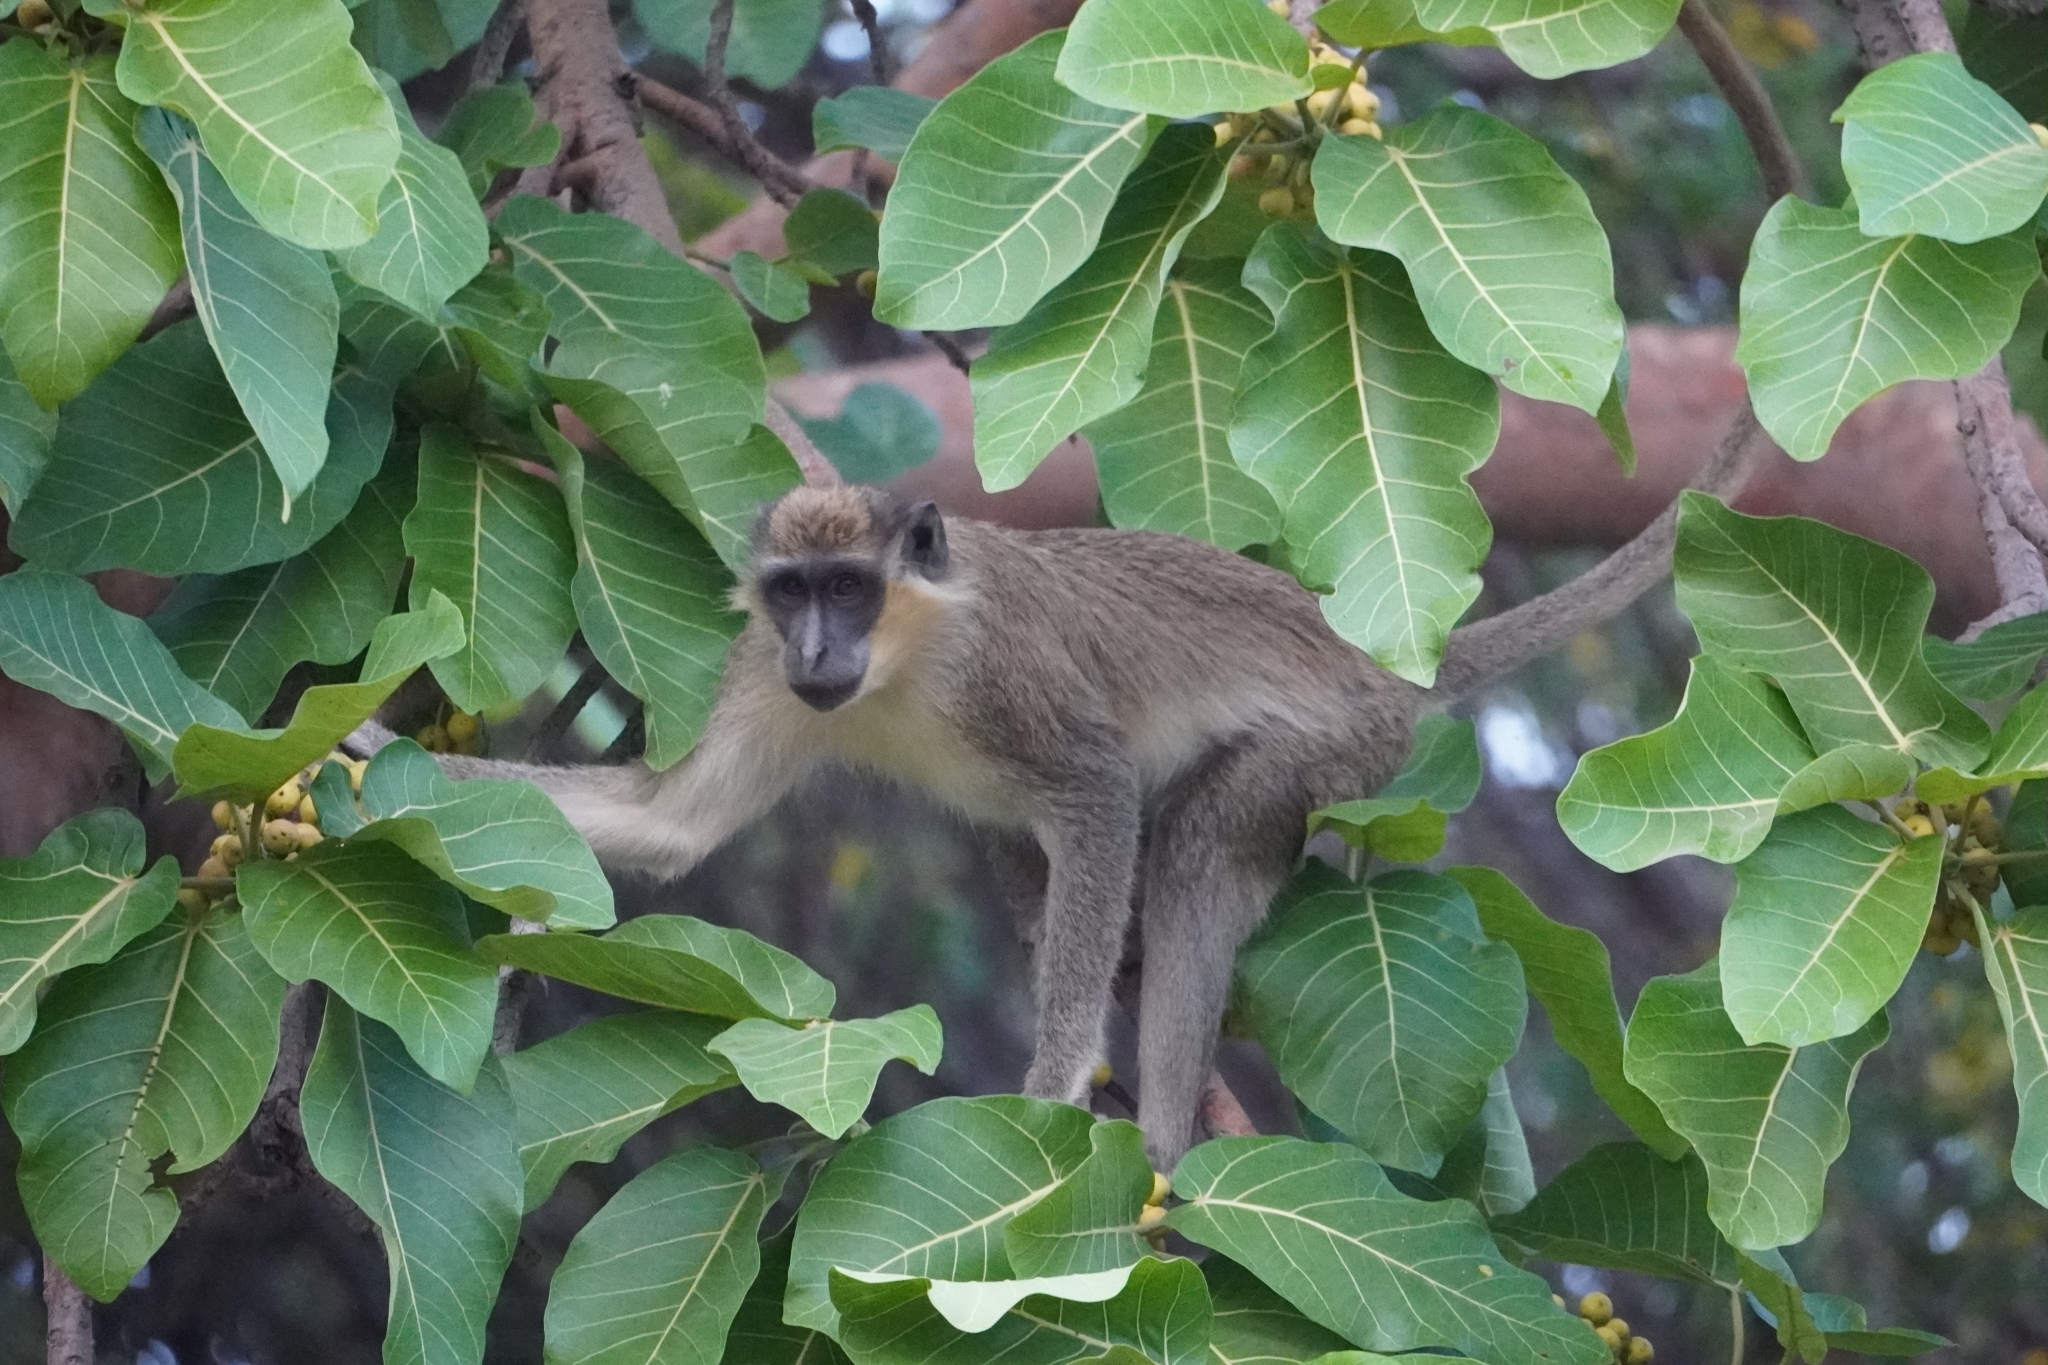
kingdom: Animalia
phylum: Chordata
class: Mammalia
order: Primates
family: Cercopithecidae
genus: Chlorocebus
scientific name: Chlorocebus sabaeus
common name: Green monkey
